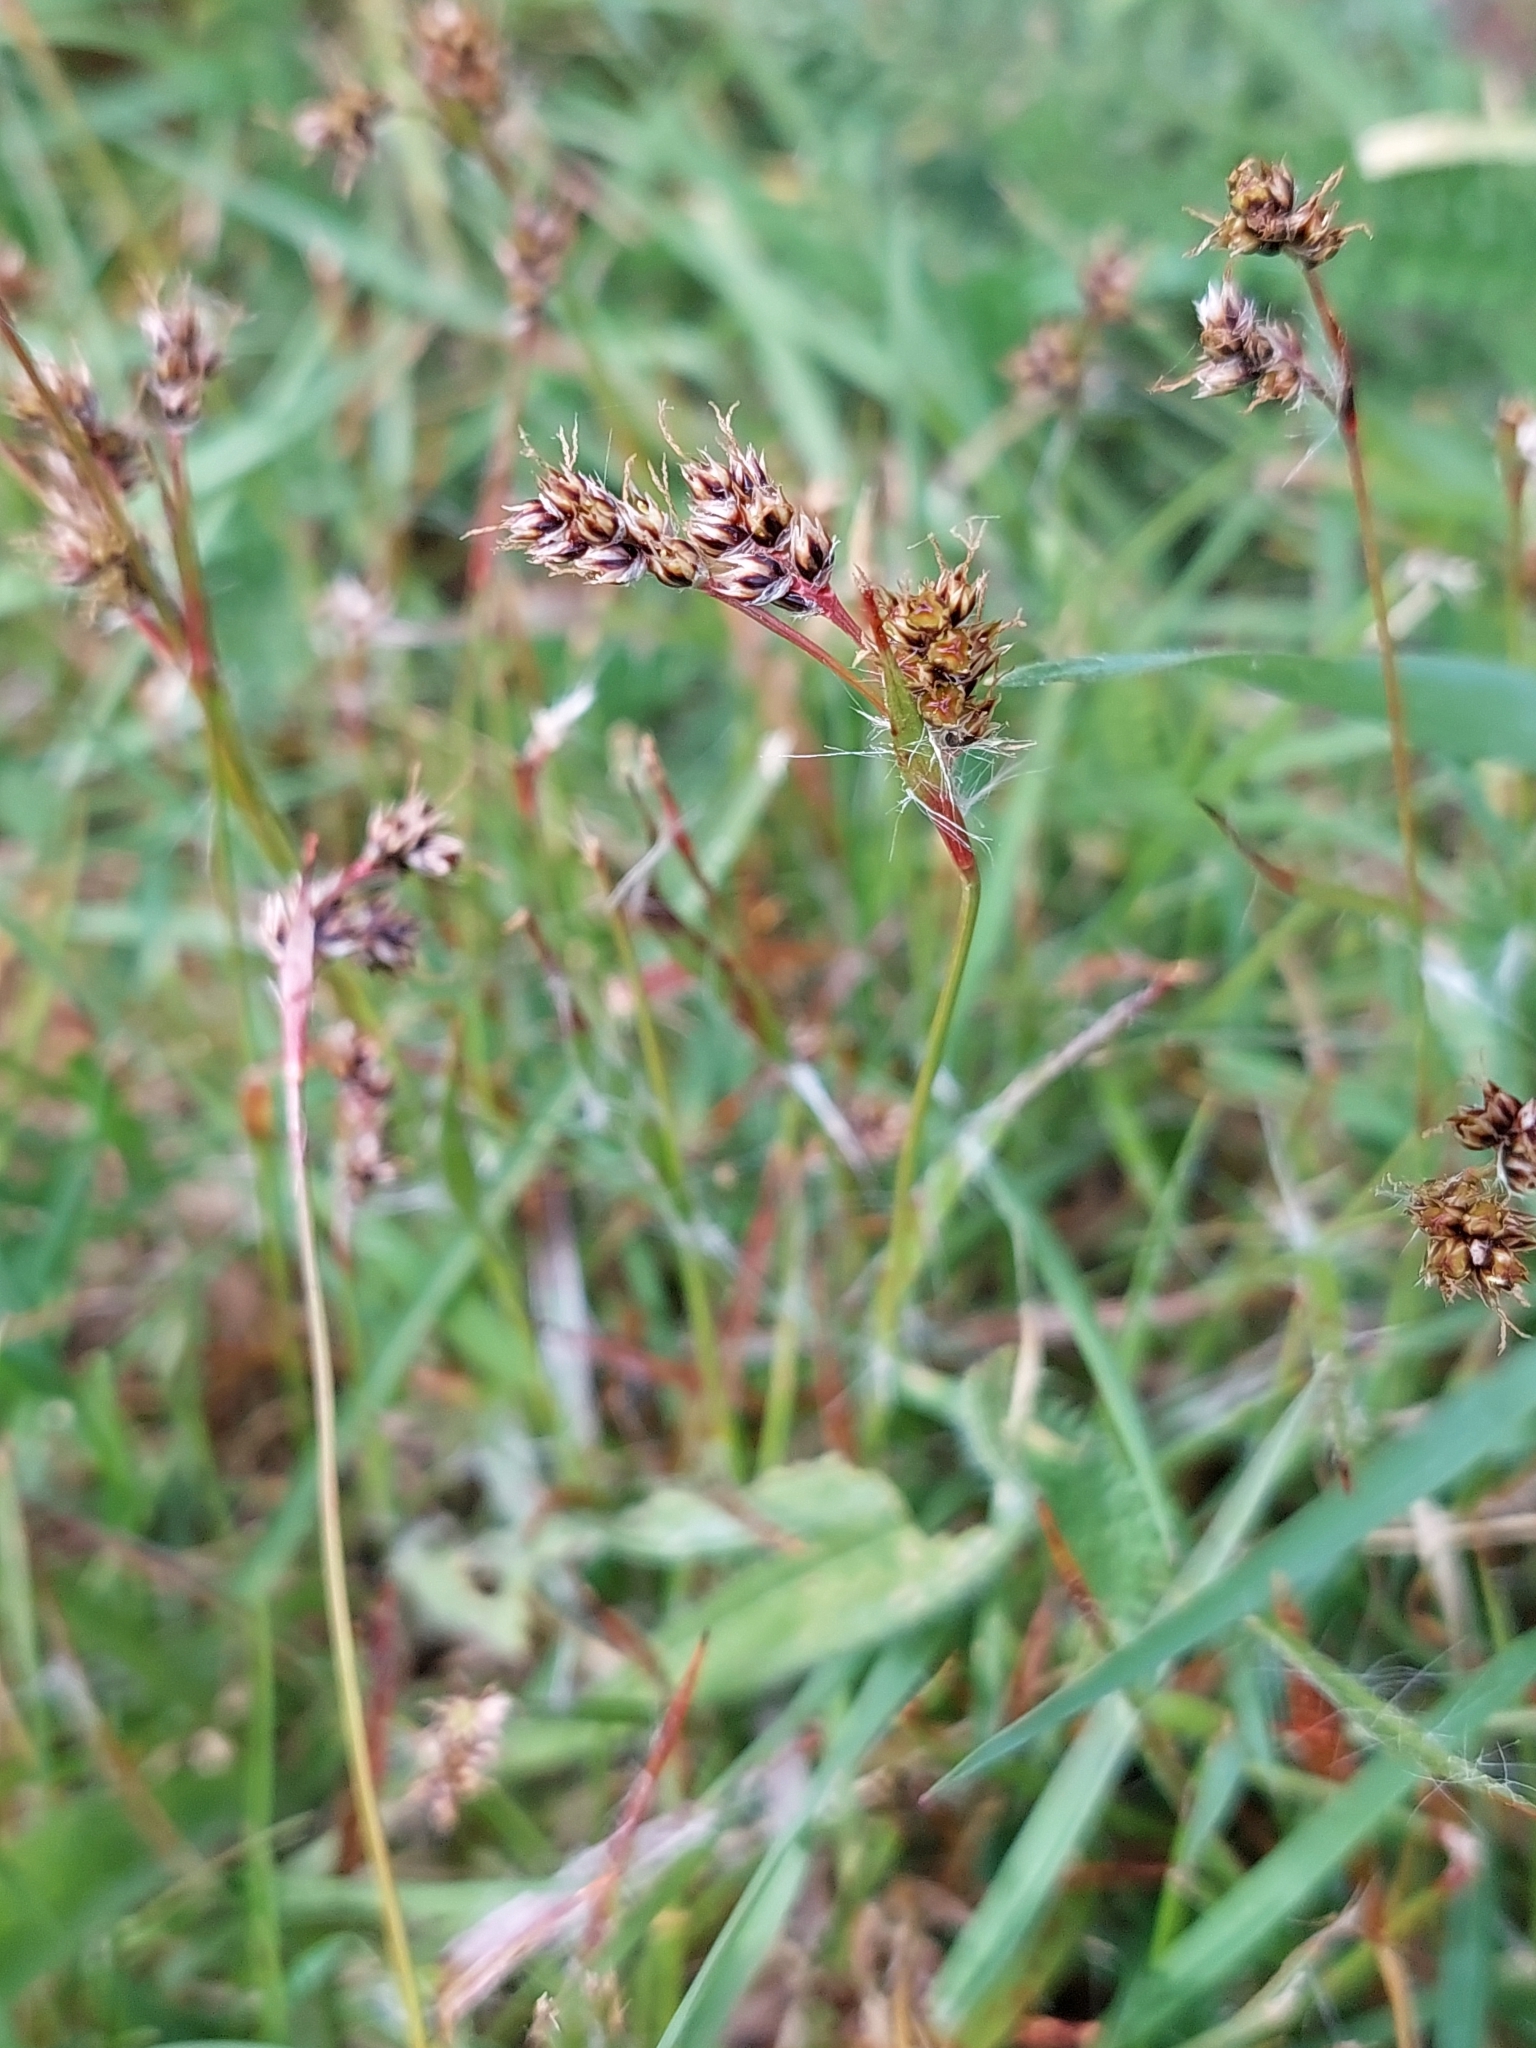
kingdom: Plantae
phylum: Tracheophyta
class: Liliopsida
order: Poales
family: Juncaceae
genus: Luzula
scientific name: Luzula campestris
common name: Field wood-rush
